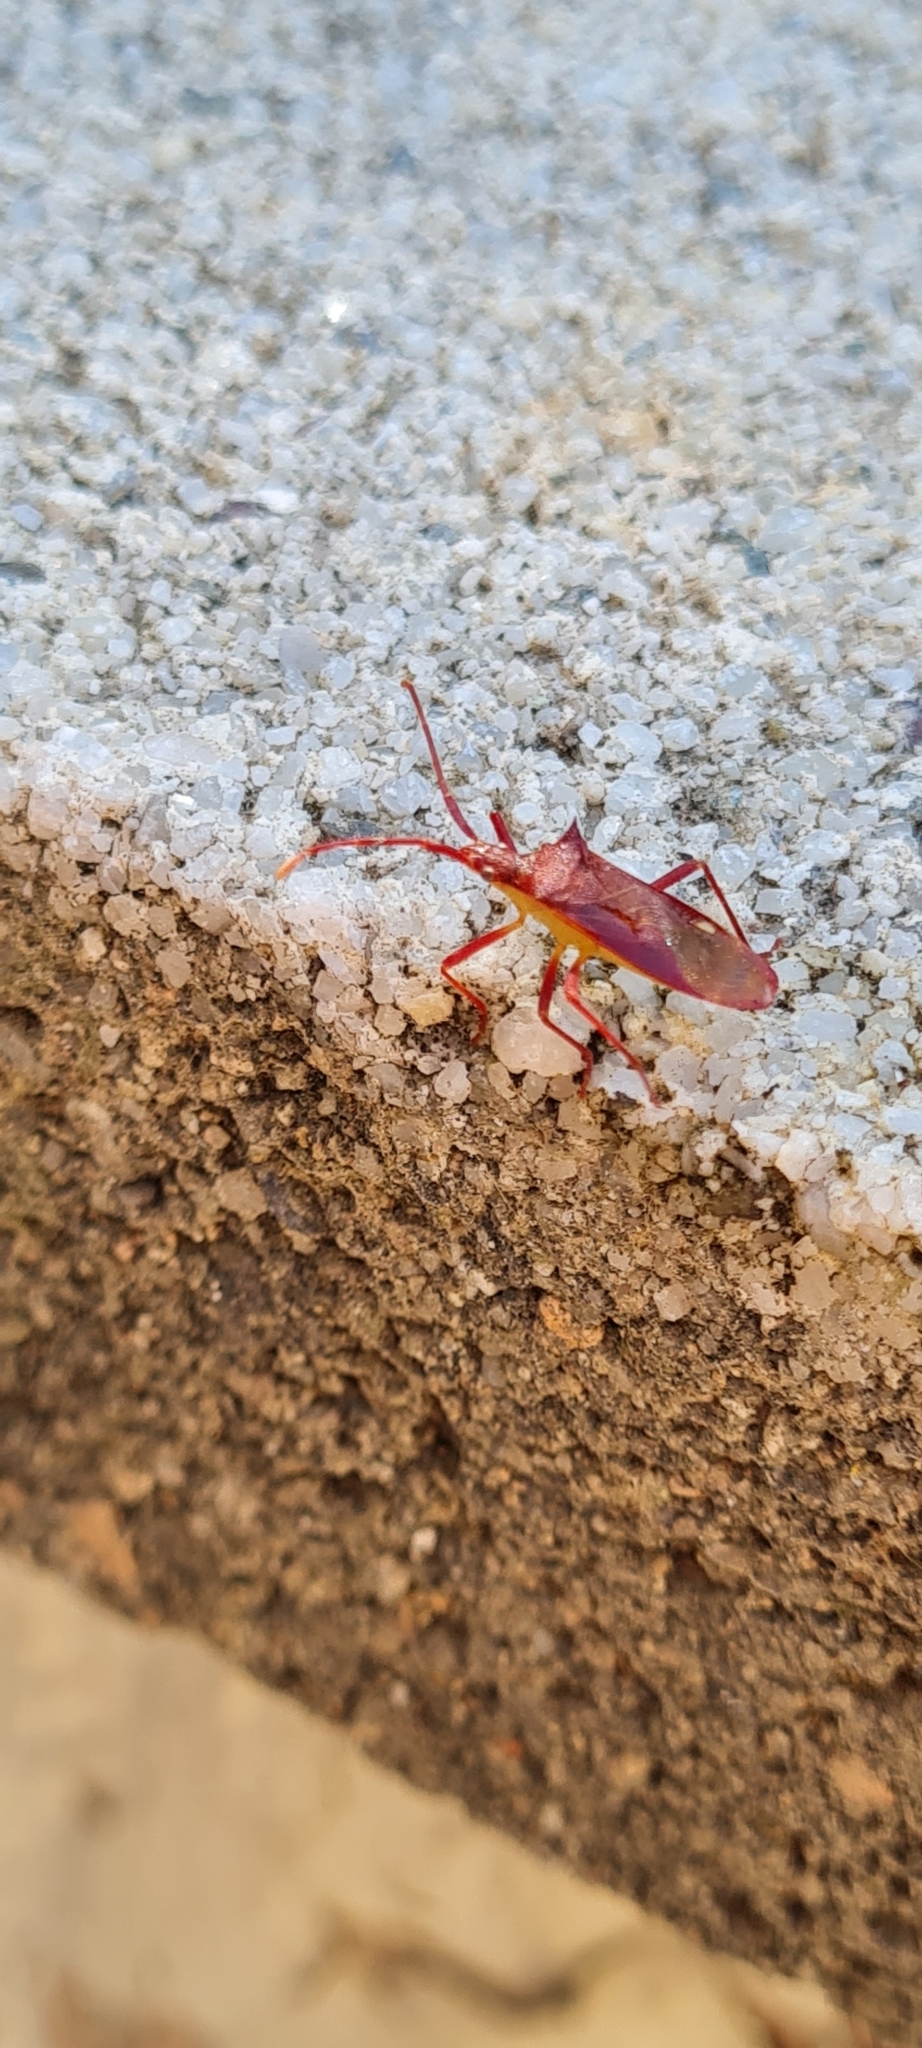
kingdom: Animalia
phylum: Arthropoda
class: Insecta
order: Hemiptera
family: Coreidae
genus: Gonocerus
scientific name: Gonocerus insidiator
